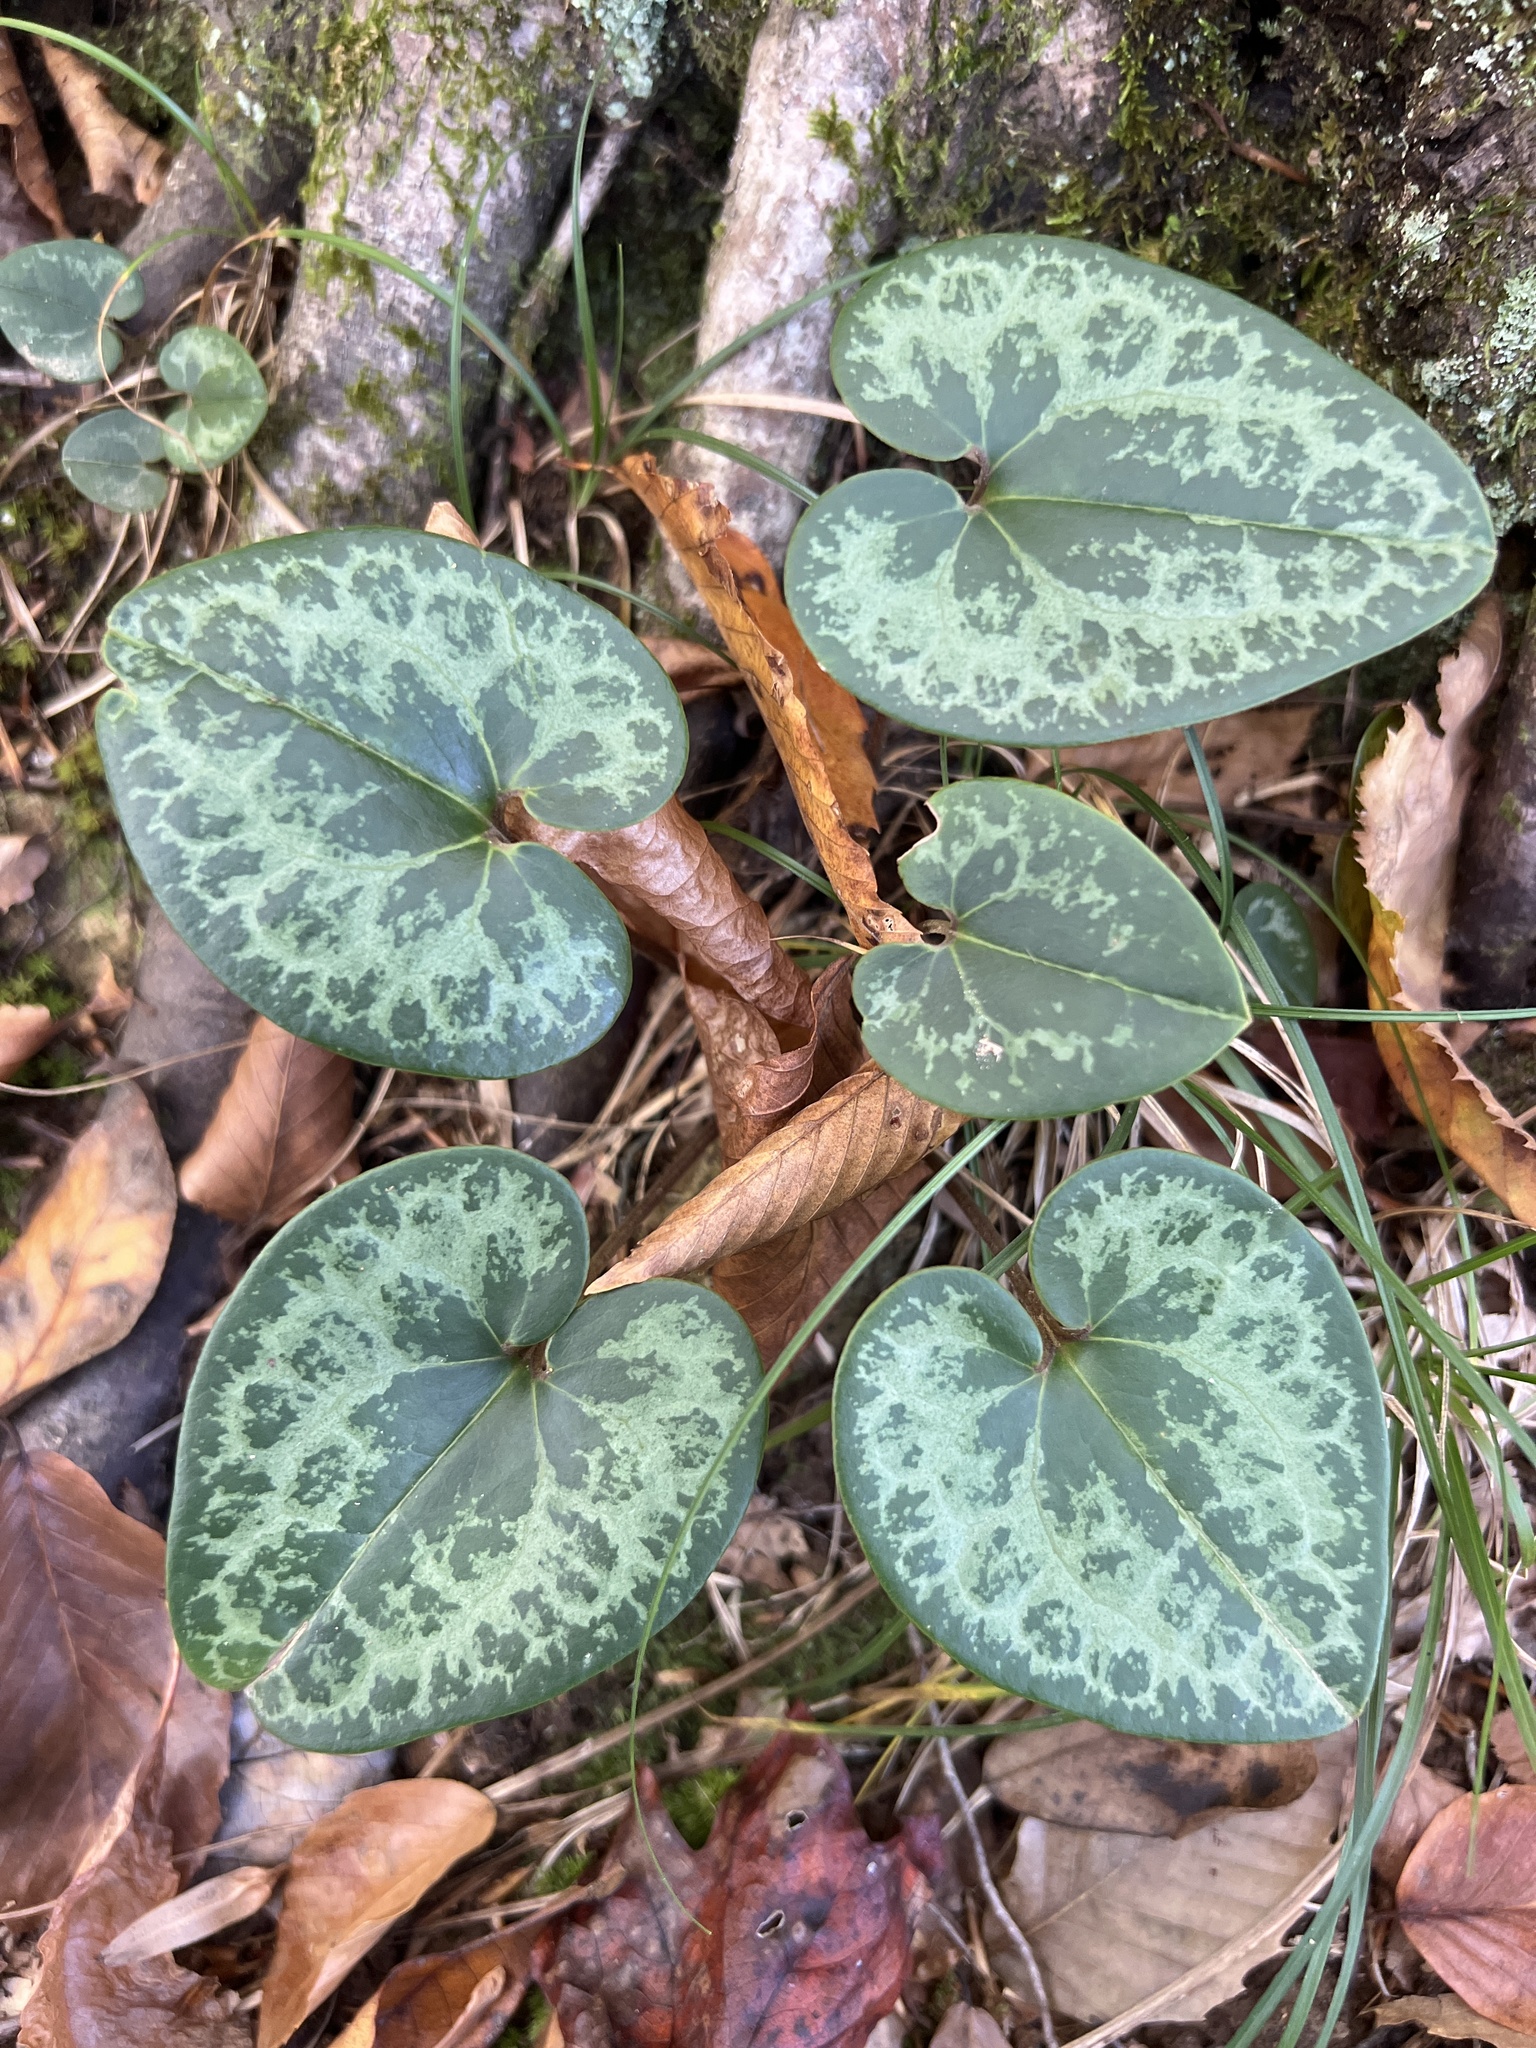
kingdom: Plantae
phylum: Tracheophyta
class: Magnoliopsida
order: Piperales
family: Aristolochiaceae
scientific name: Aristolochiaceae
